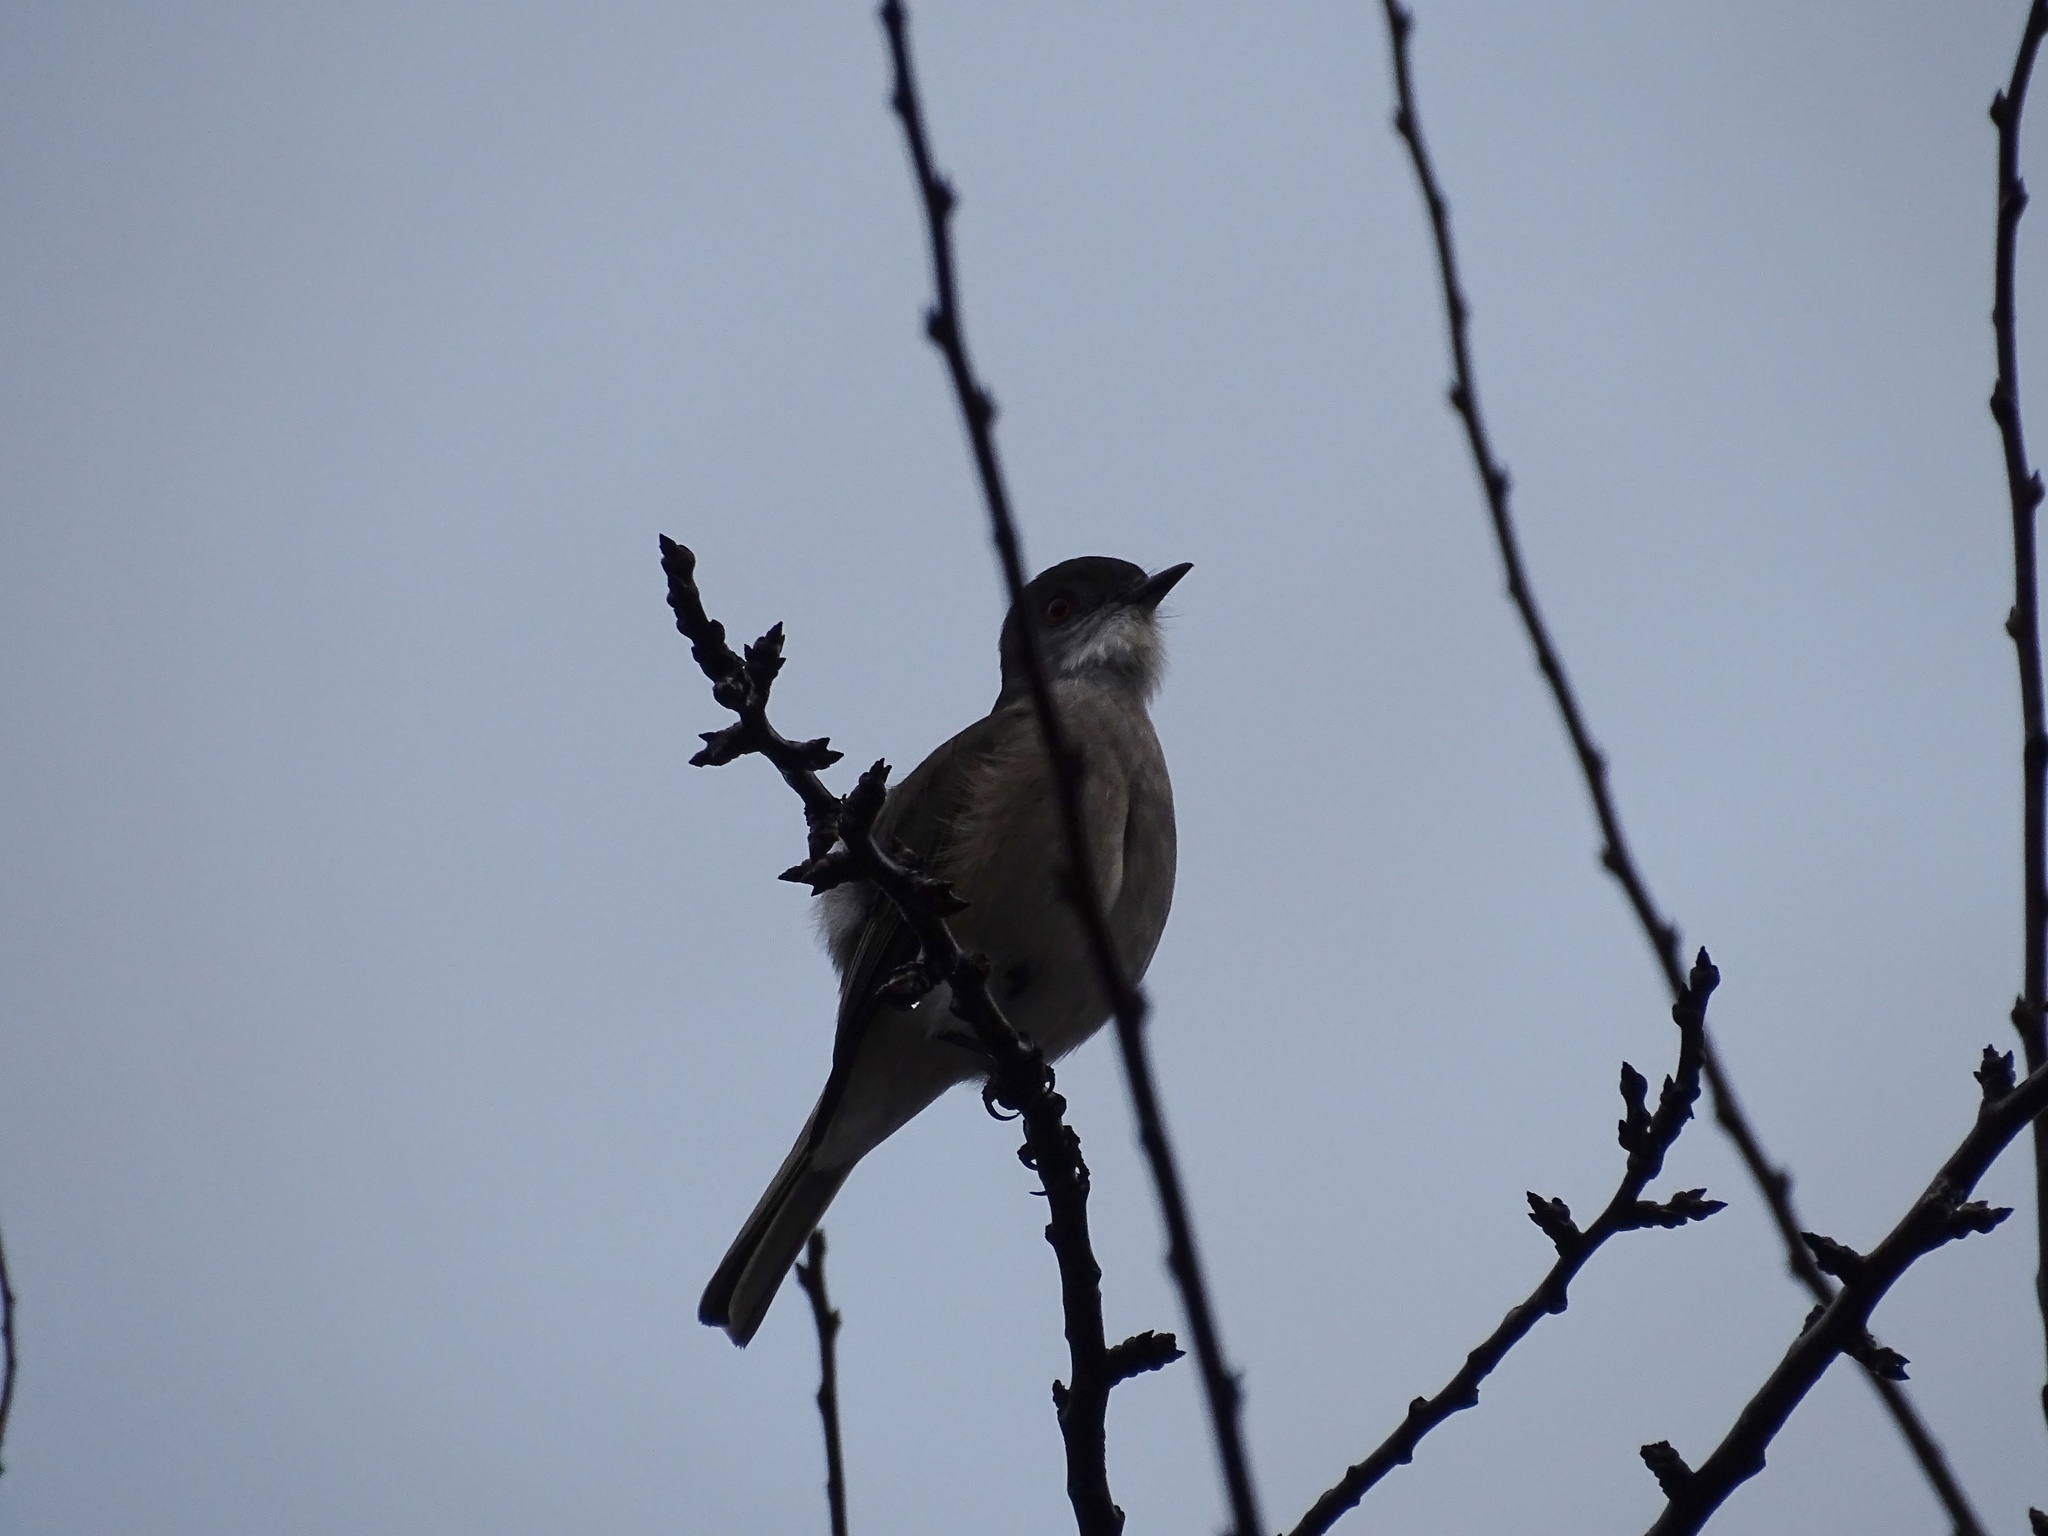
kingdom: Animalia
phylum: Chordata
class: Aves
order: Passeriformes
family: Tyrannidae
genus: Xolmis
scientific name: Xolmis pyrope
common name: Fire-eyed diucon
